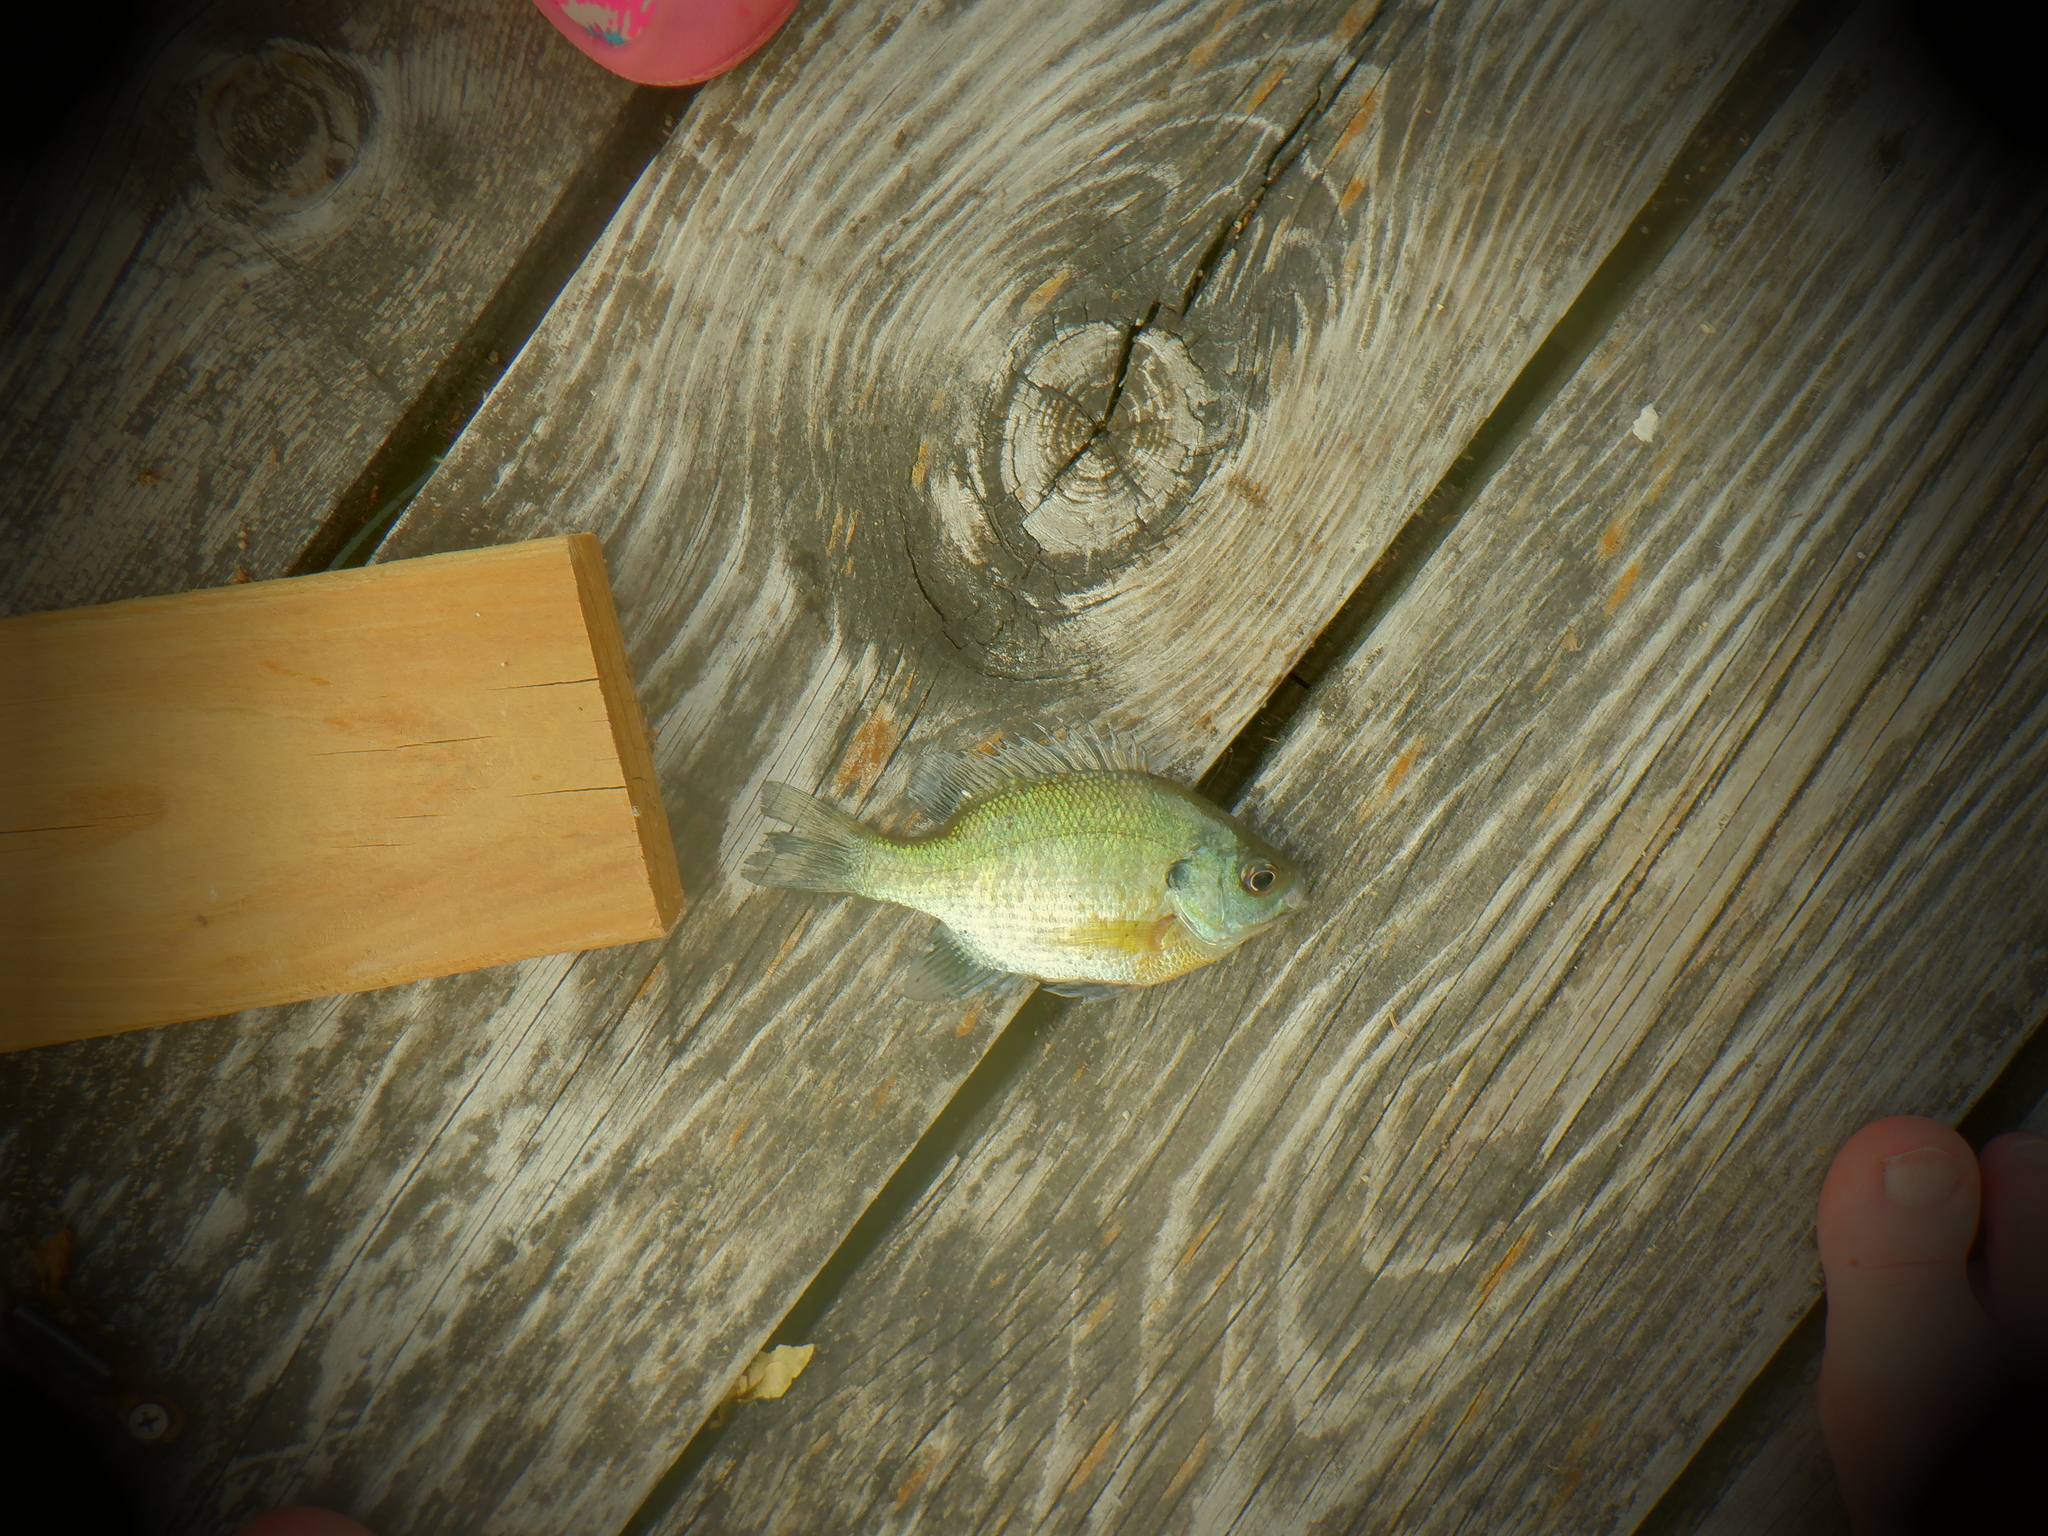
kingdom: Animalia
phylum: Chordata
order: Perciformes
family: Centrarchidae
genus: Lepomis
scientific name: Lepomis macrochirus
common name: Bluegill
